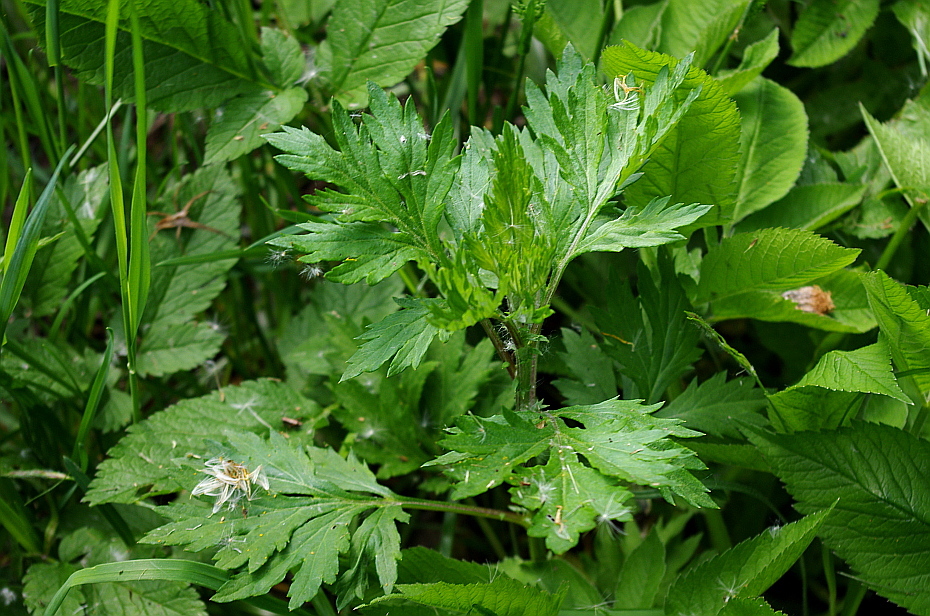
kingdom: Plantae
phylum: Tracheophyta
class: Magnoliopsida
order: Asterales
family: Asteraceae
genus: Artemisia
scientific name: Artemisia vulgaris
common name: Mugwort
